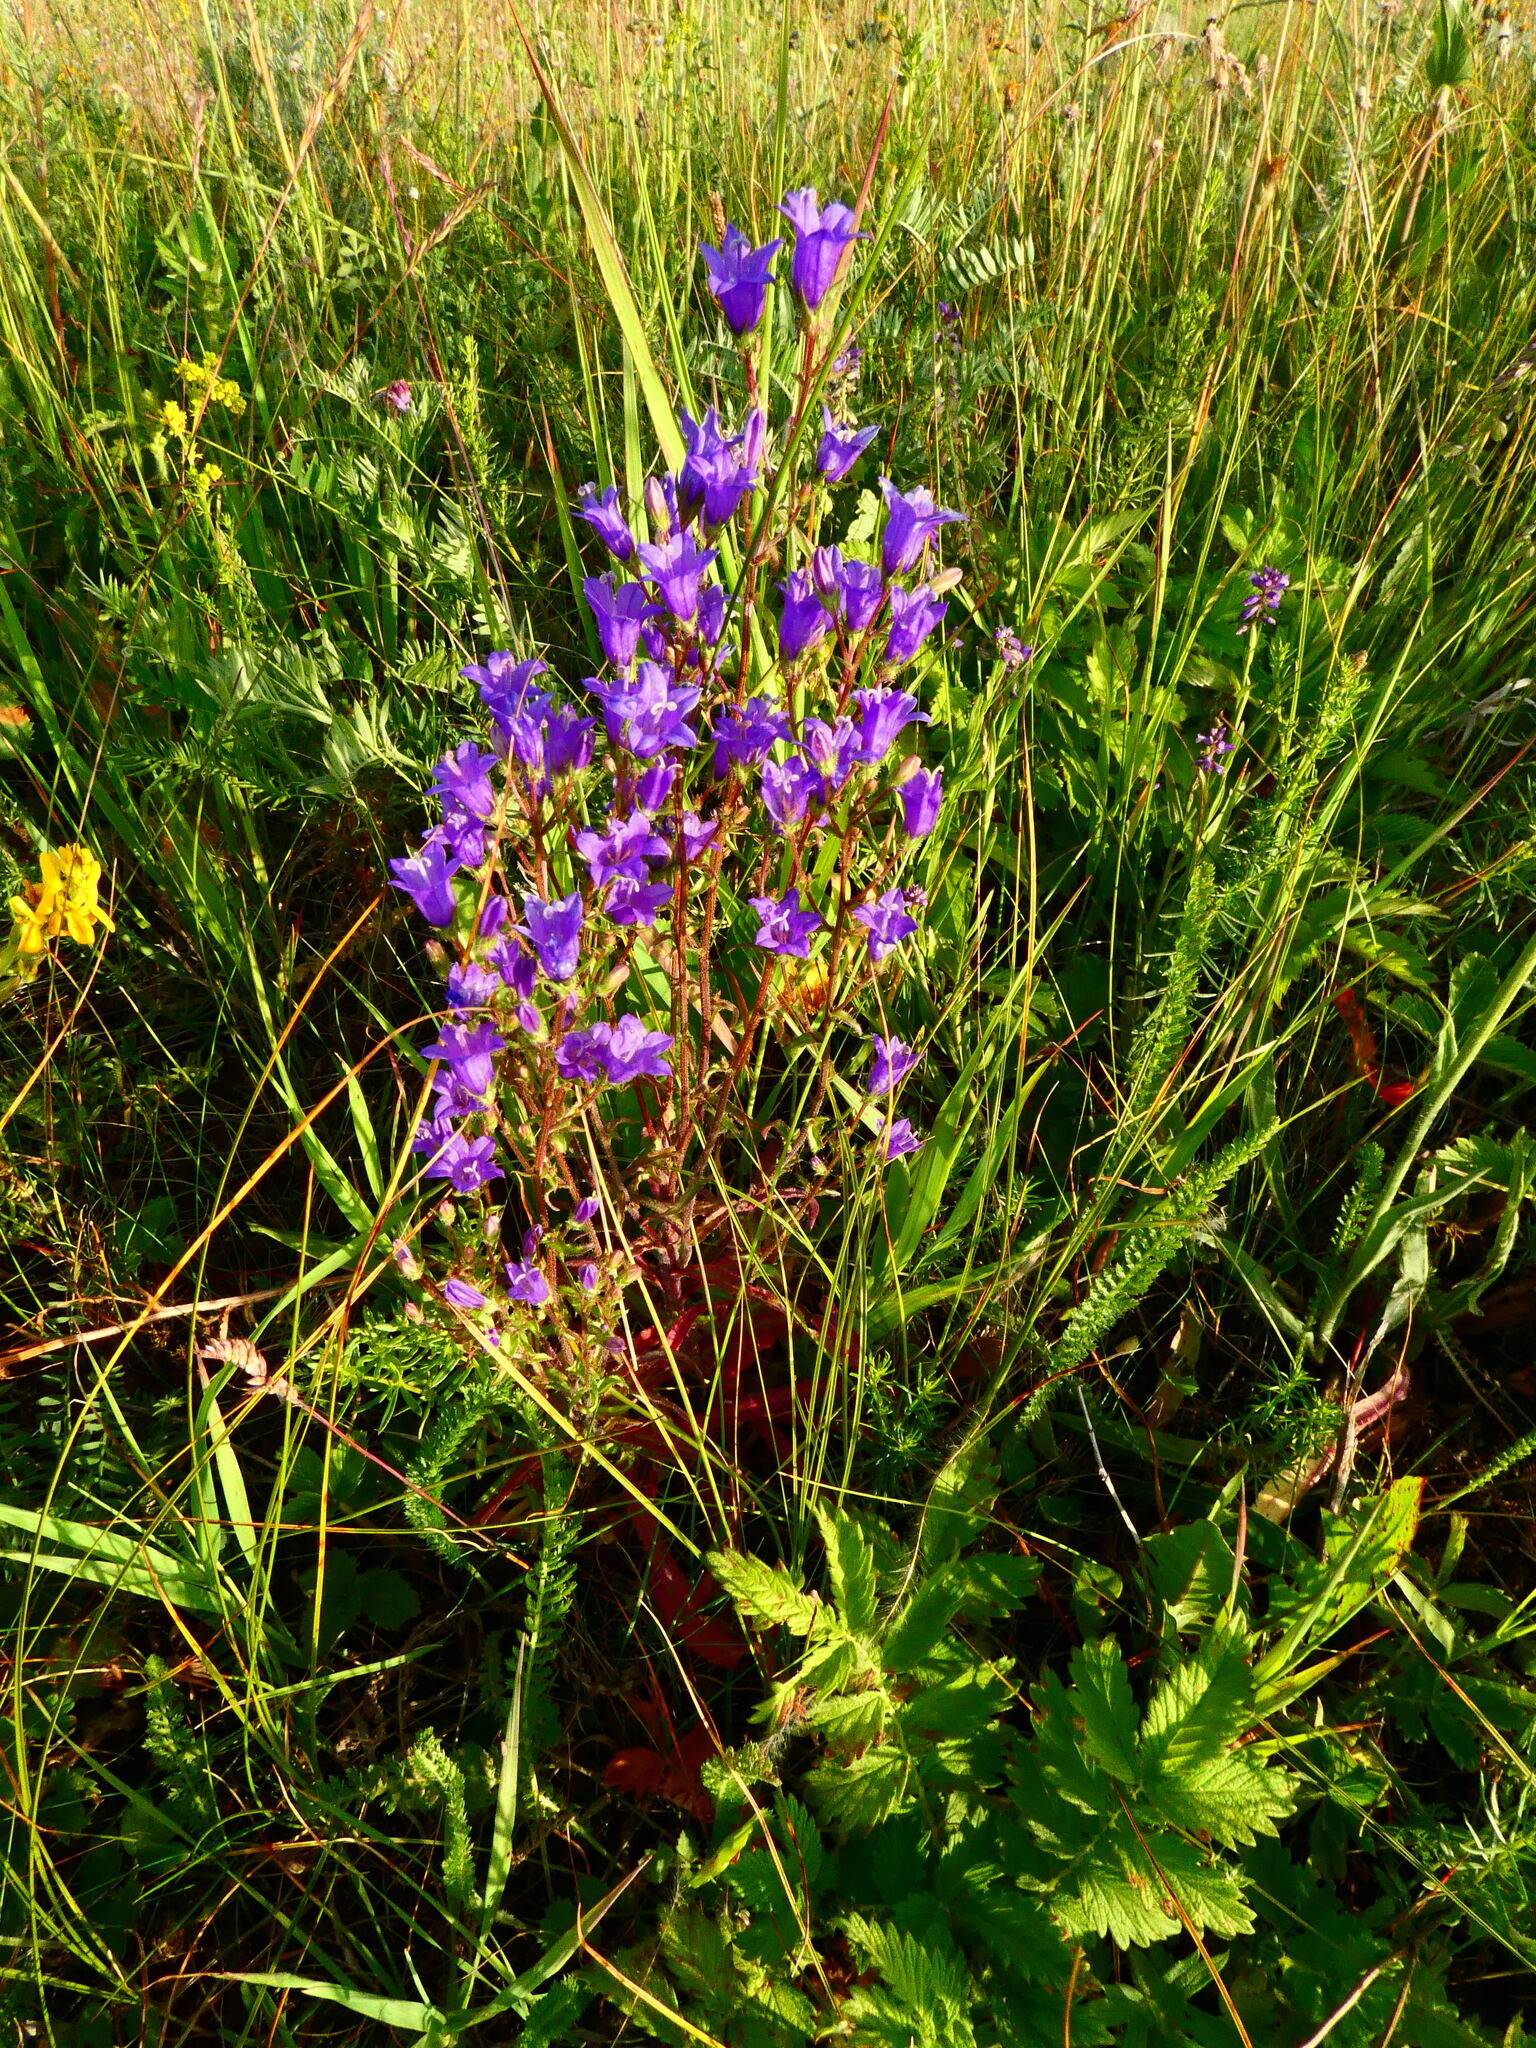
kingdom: Plantae
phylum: Tracheophyta
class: Magnoliopsida
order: Asterales
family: Campanulaceae
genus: Campanula
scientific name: Campanula sibirica
